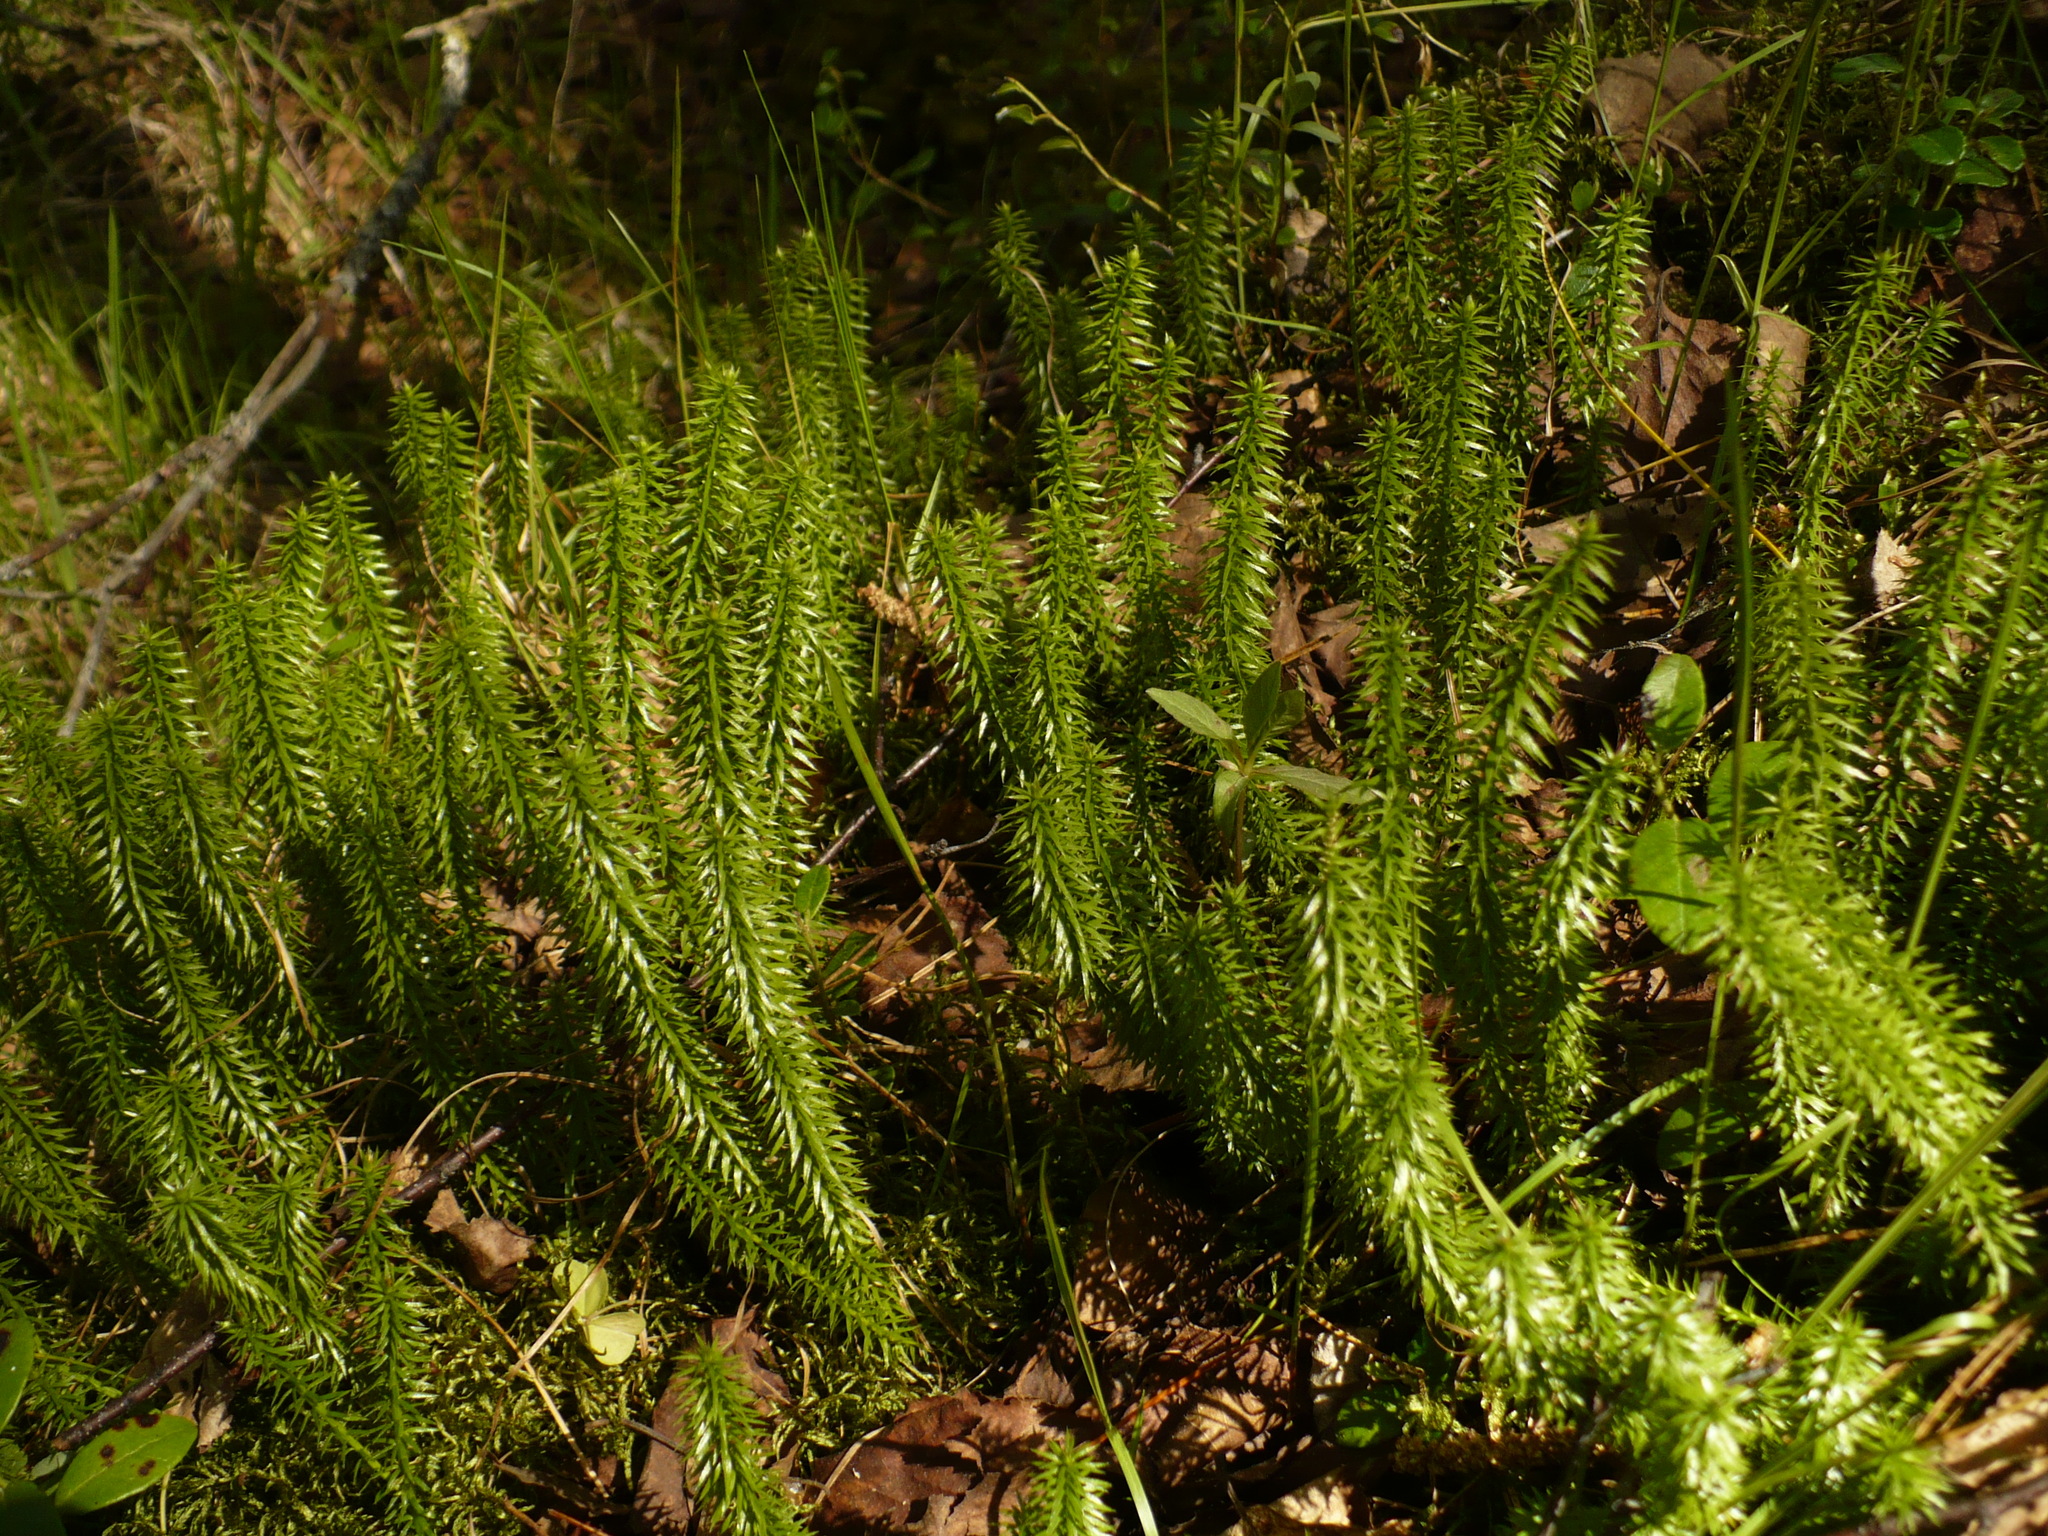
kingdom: Plantae
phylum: Tracheophyta
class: Lycopodiopsida
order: Lycopodiales
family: Lycopodiaceae
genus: Spinulum
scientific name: Spinulum annotinum
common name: Interrupted club-moss
